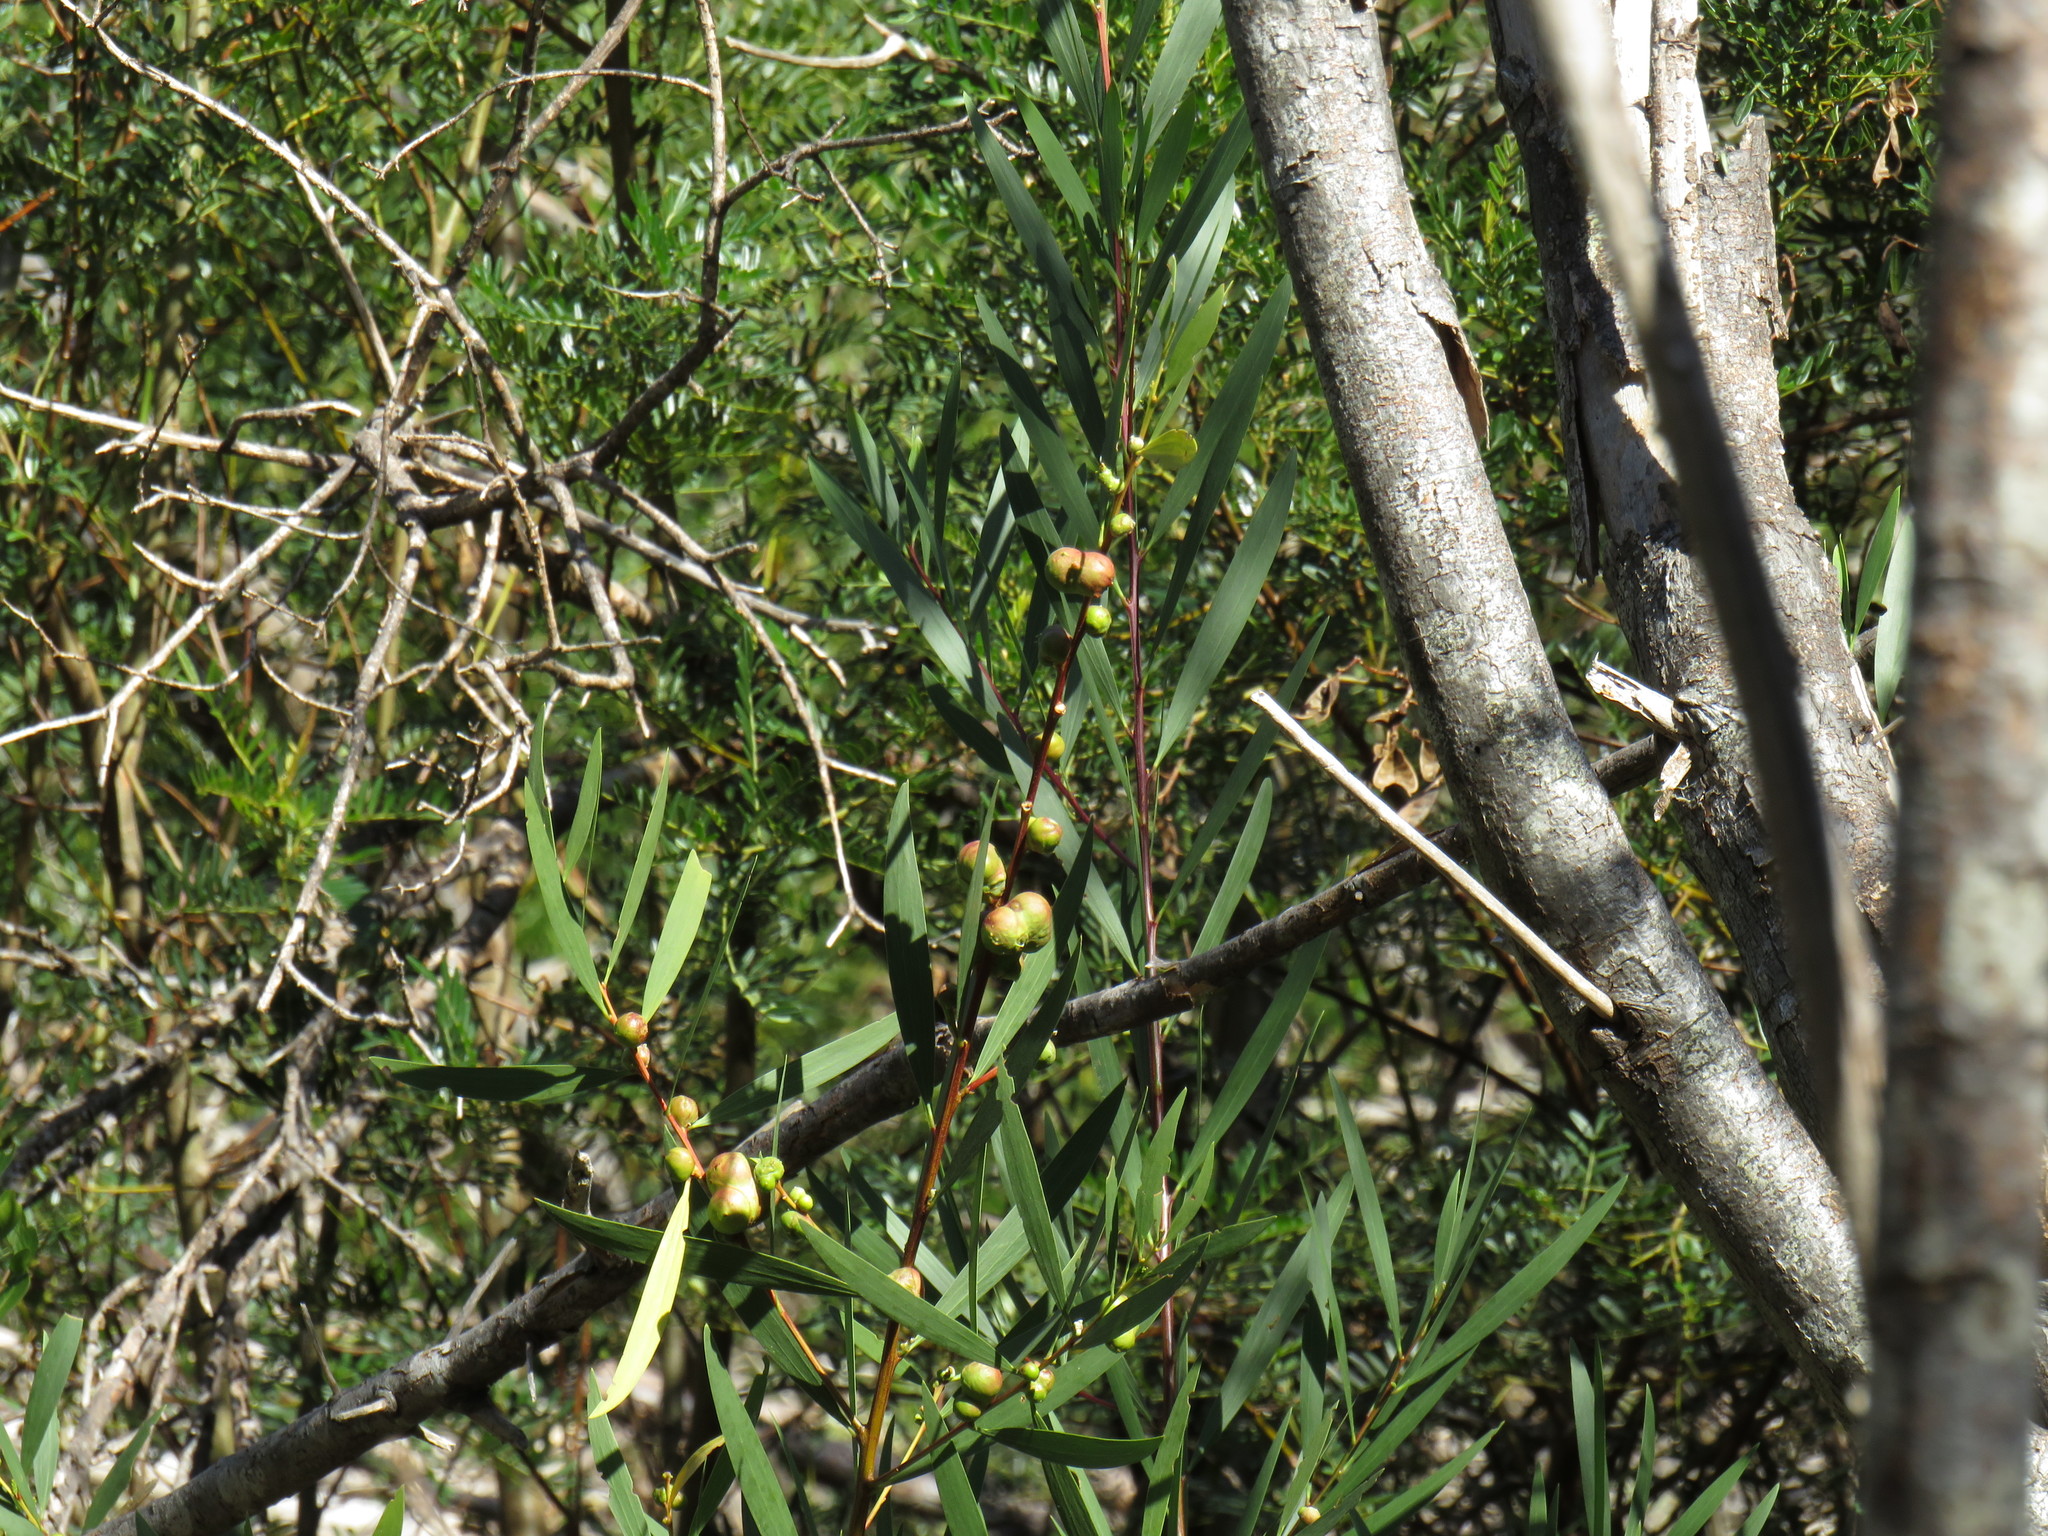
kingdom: Plantae
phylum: Tracheophyta
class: Magnoliopsida
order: Fabales
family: Fabaceae
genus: Acacia
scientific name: Acacia longifolia
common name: Sydney golden wattle
